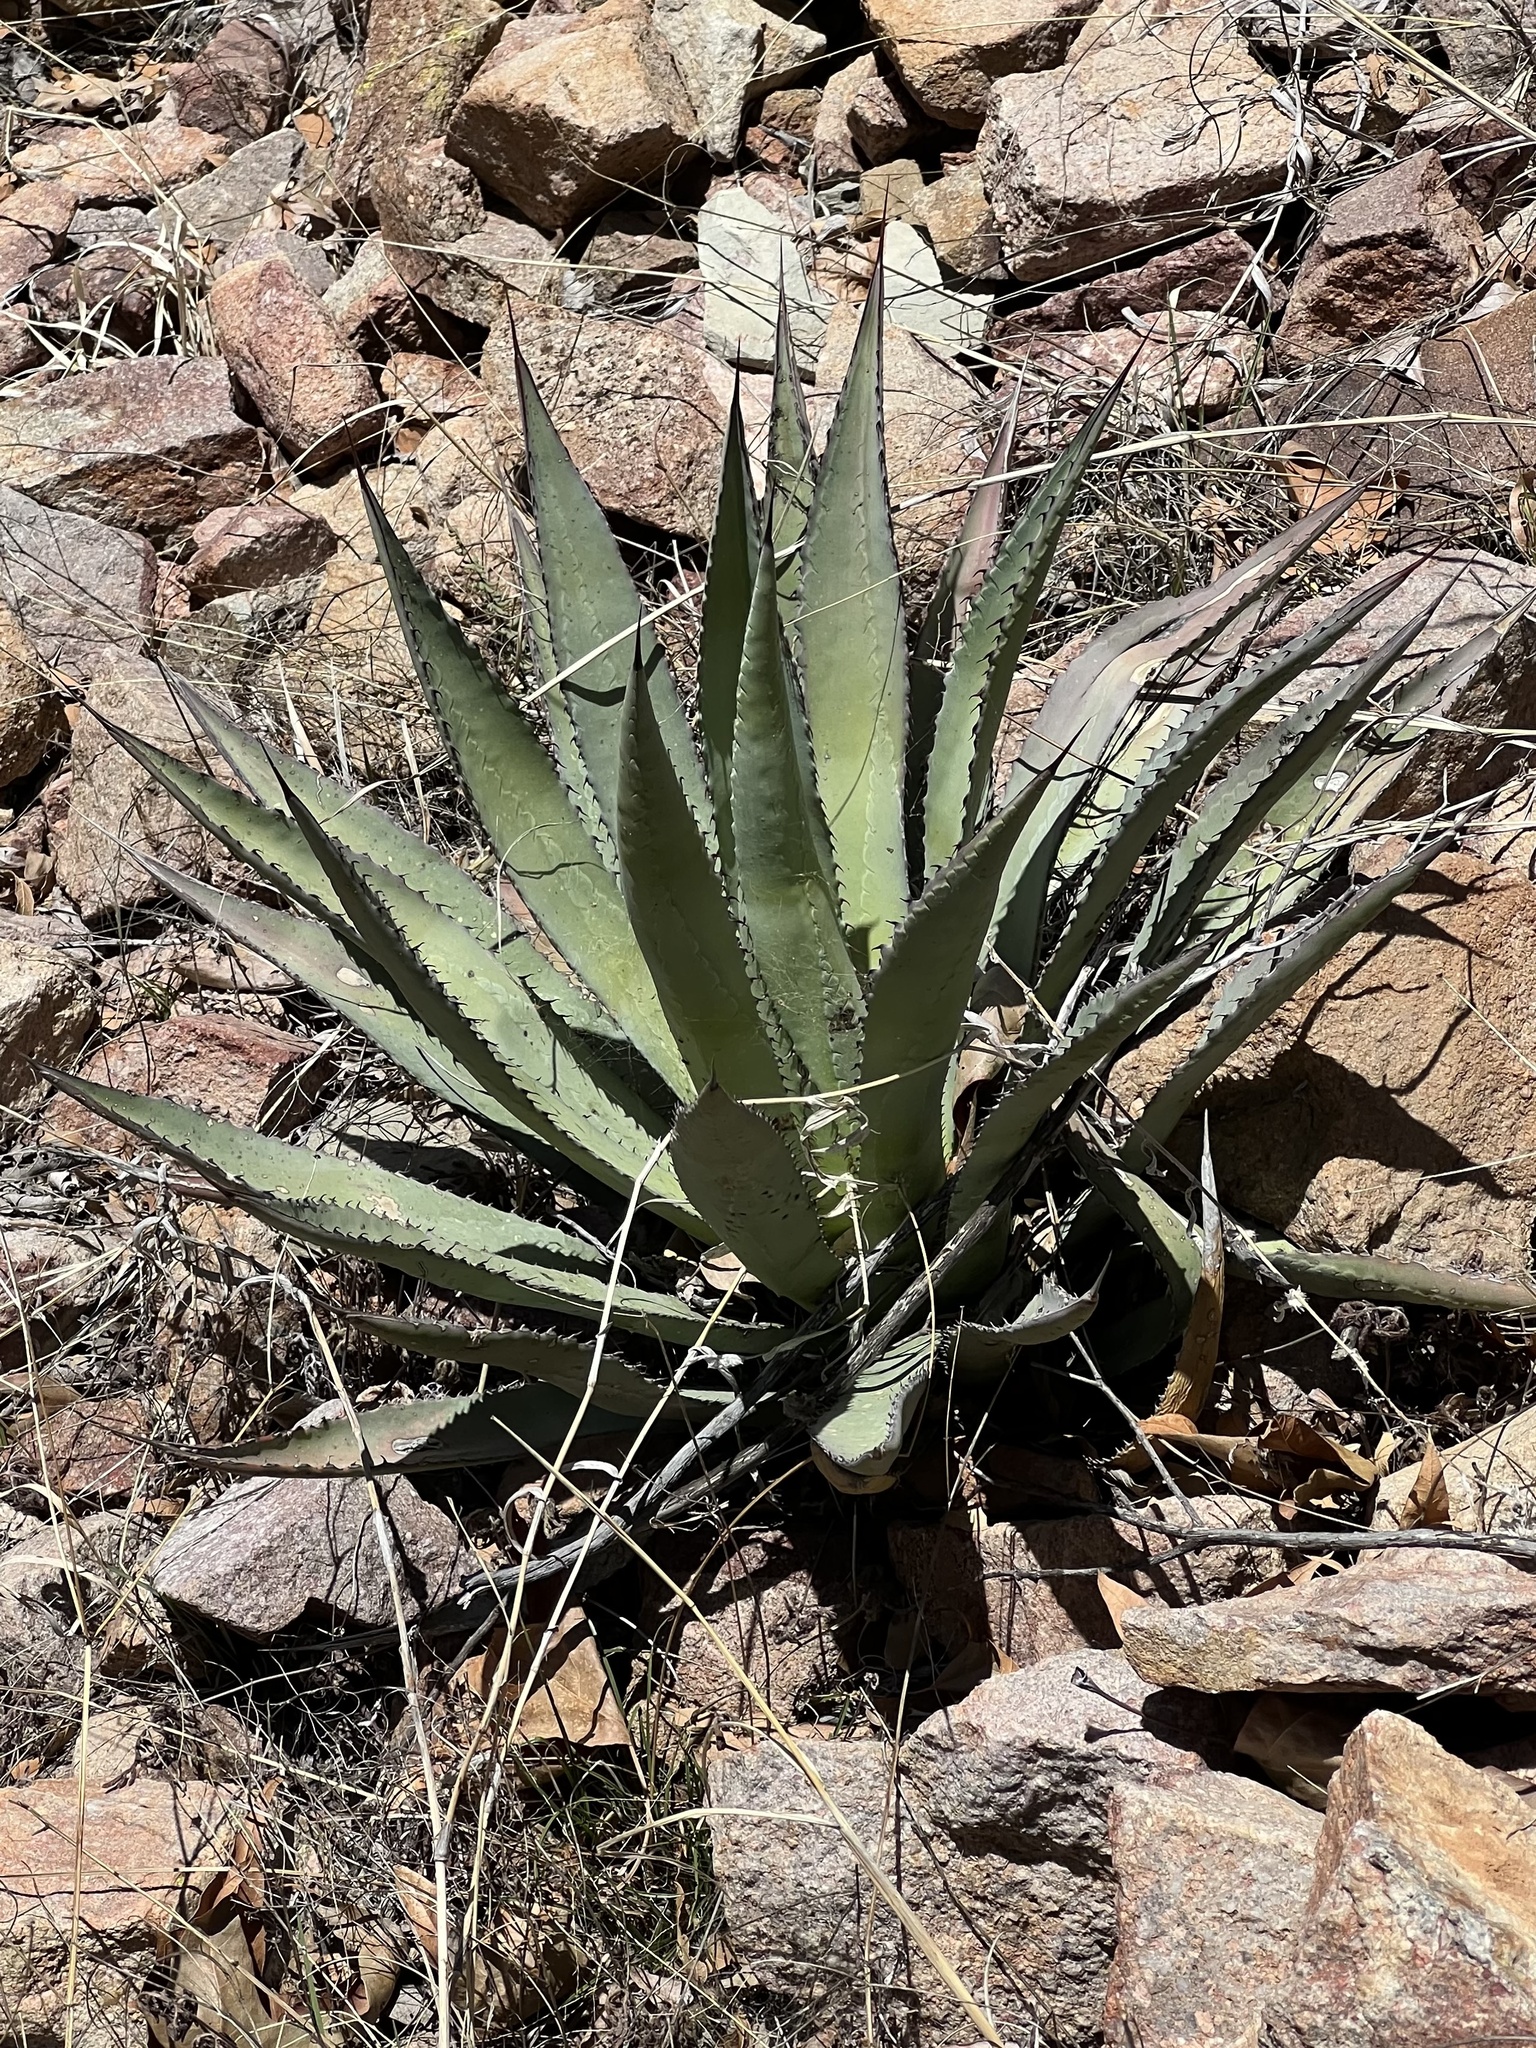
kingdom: Plantae
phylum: Tracheophyta
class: Liliopsida
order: Asparagales
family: Asparagaceae
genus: Agave
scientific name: Agave palmeri
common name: Palmer agave
